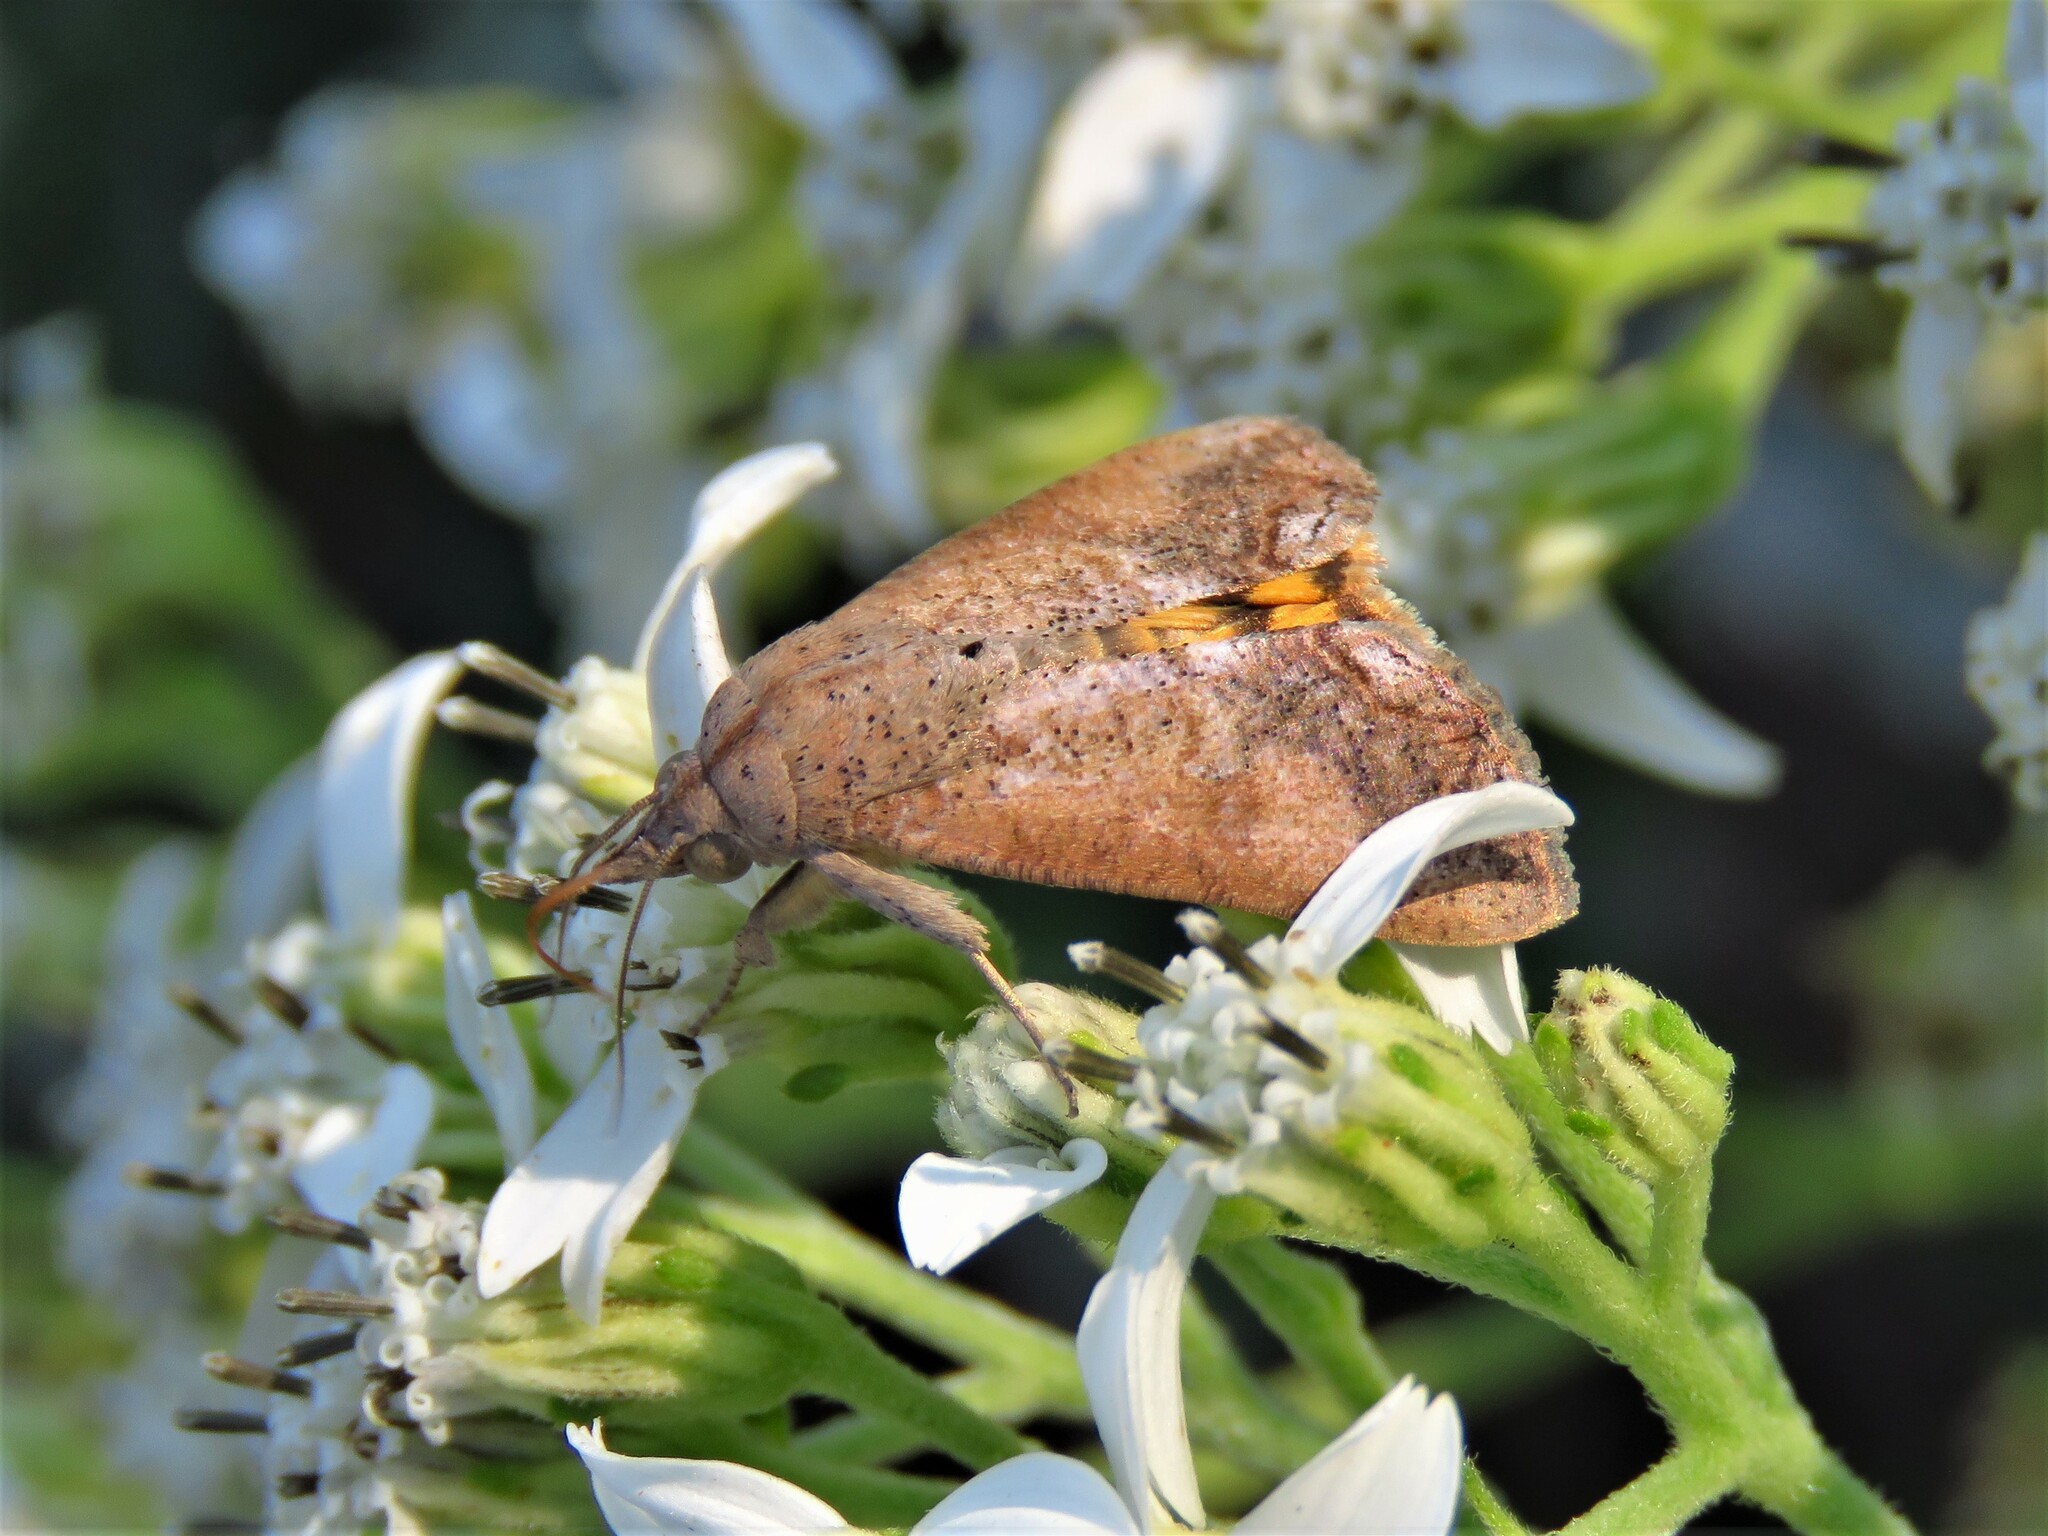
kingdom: Animalia
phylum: Arthropoda
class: Insecta
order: Lepidoptera
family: Erebidae
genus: Hypocala
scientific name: Hypocala andremona
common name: Hypocala moth
